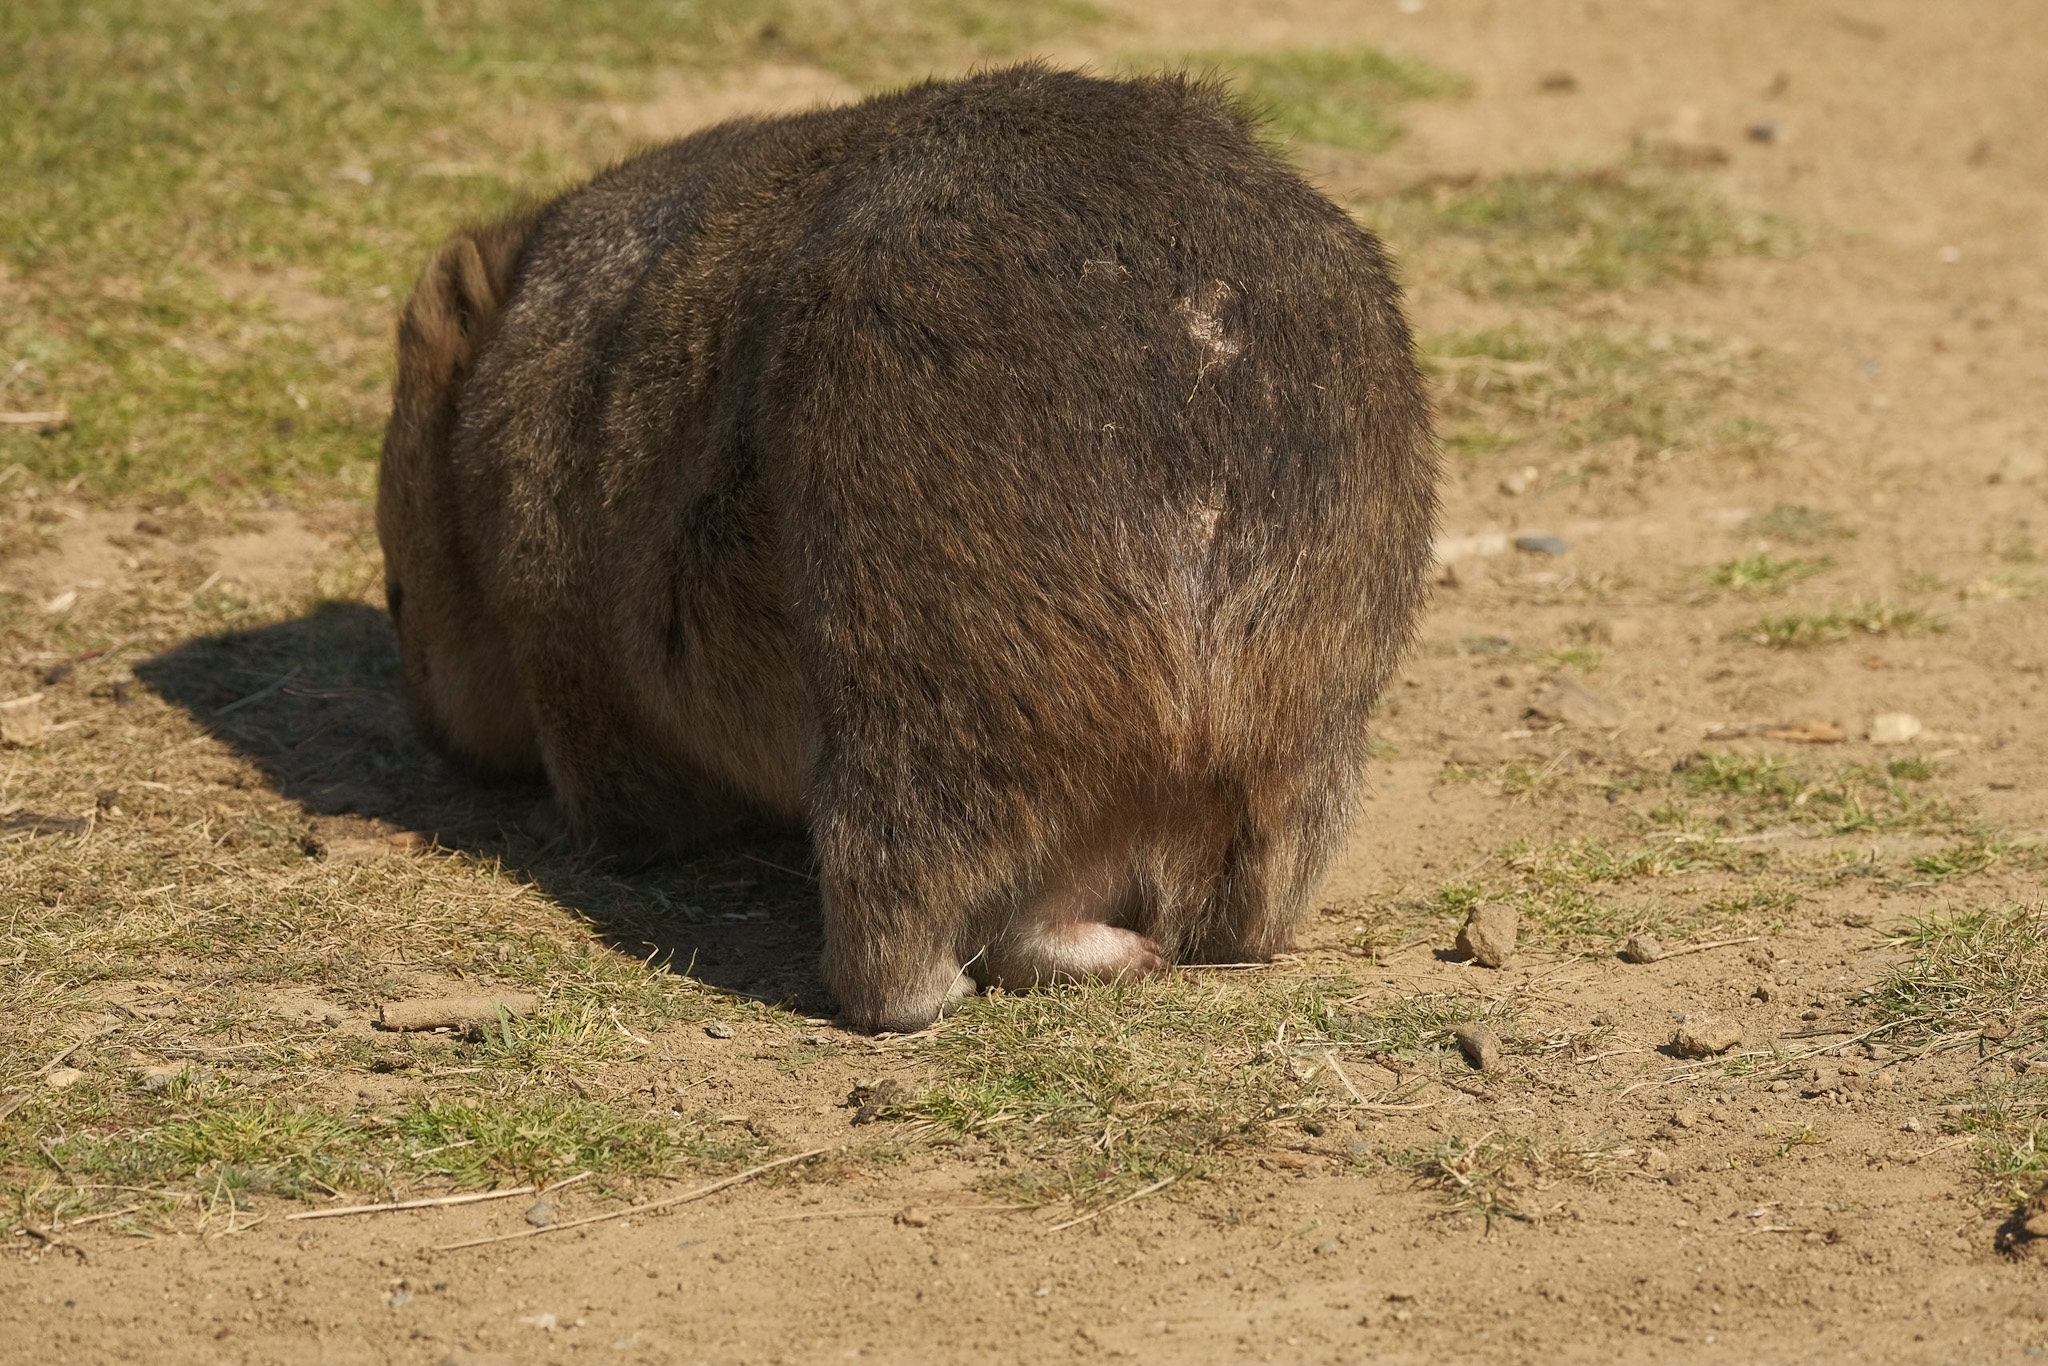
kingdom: Animalia
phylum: Chordata
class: Mammalia
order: Diprotodontia
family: Vombatidae
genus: Vombatus
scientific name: Vombatus ursinus
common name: Common wombat
